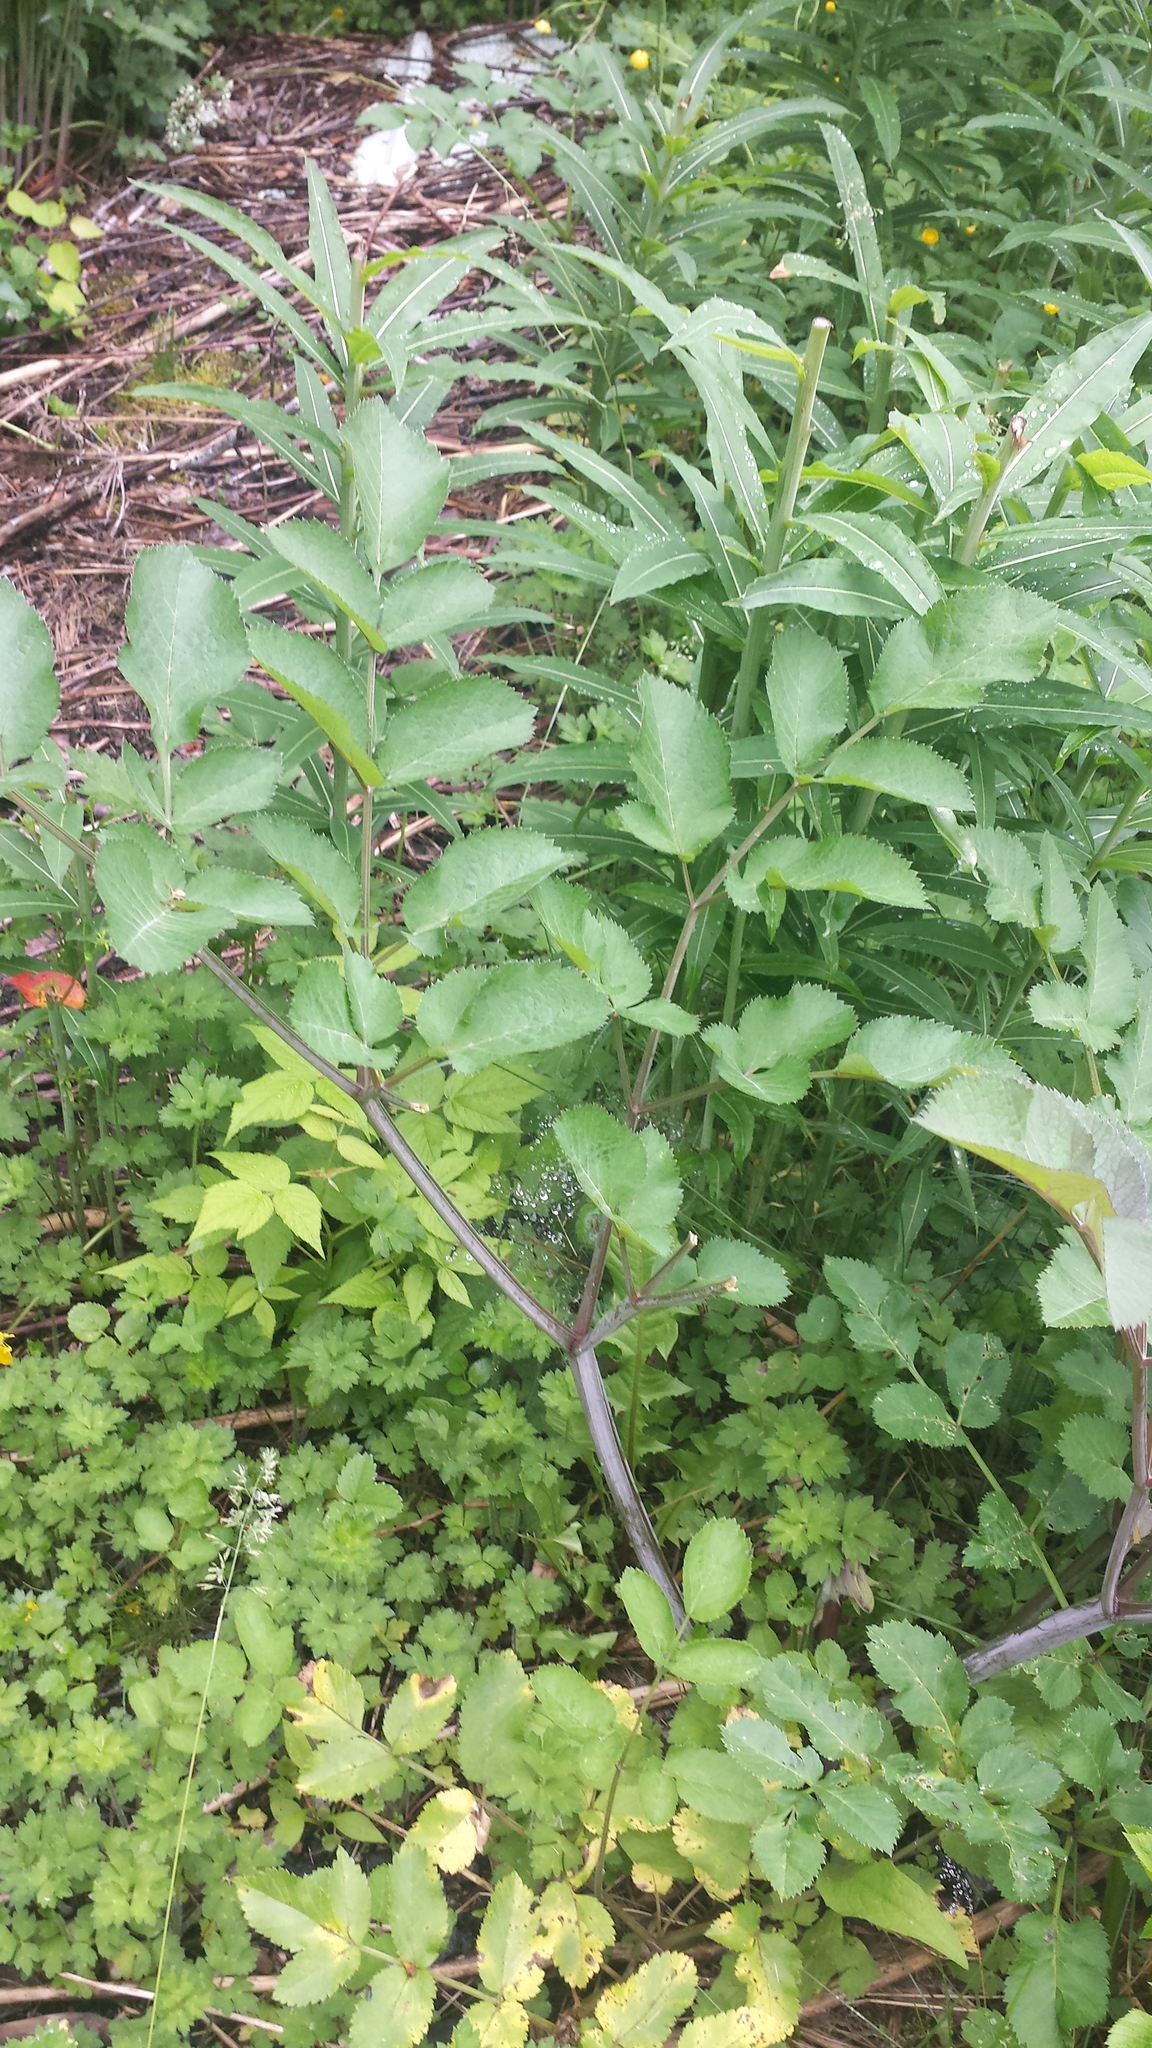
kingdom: Plantae
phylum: Tracheophyta
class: Magnoliopsida
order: Apiales
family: Apiaceae
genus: Angelica
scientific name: Angelica sylvestris
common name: Wild angelica
